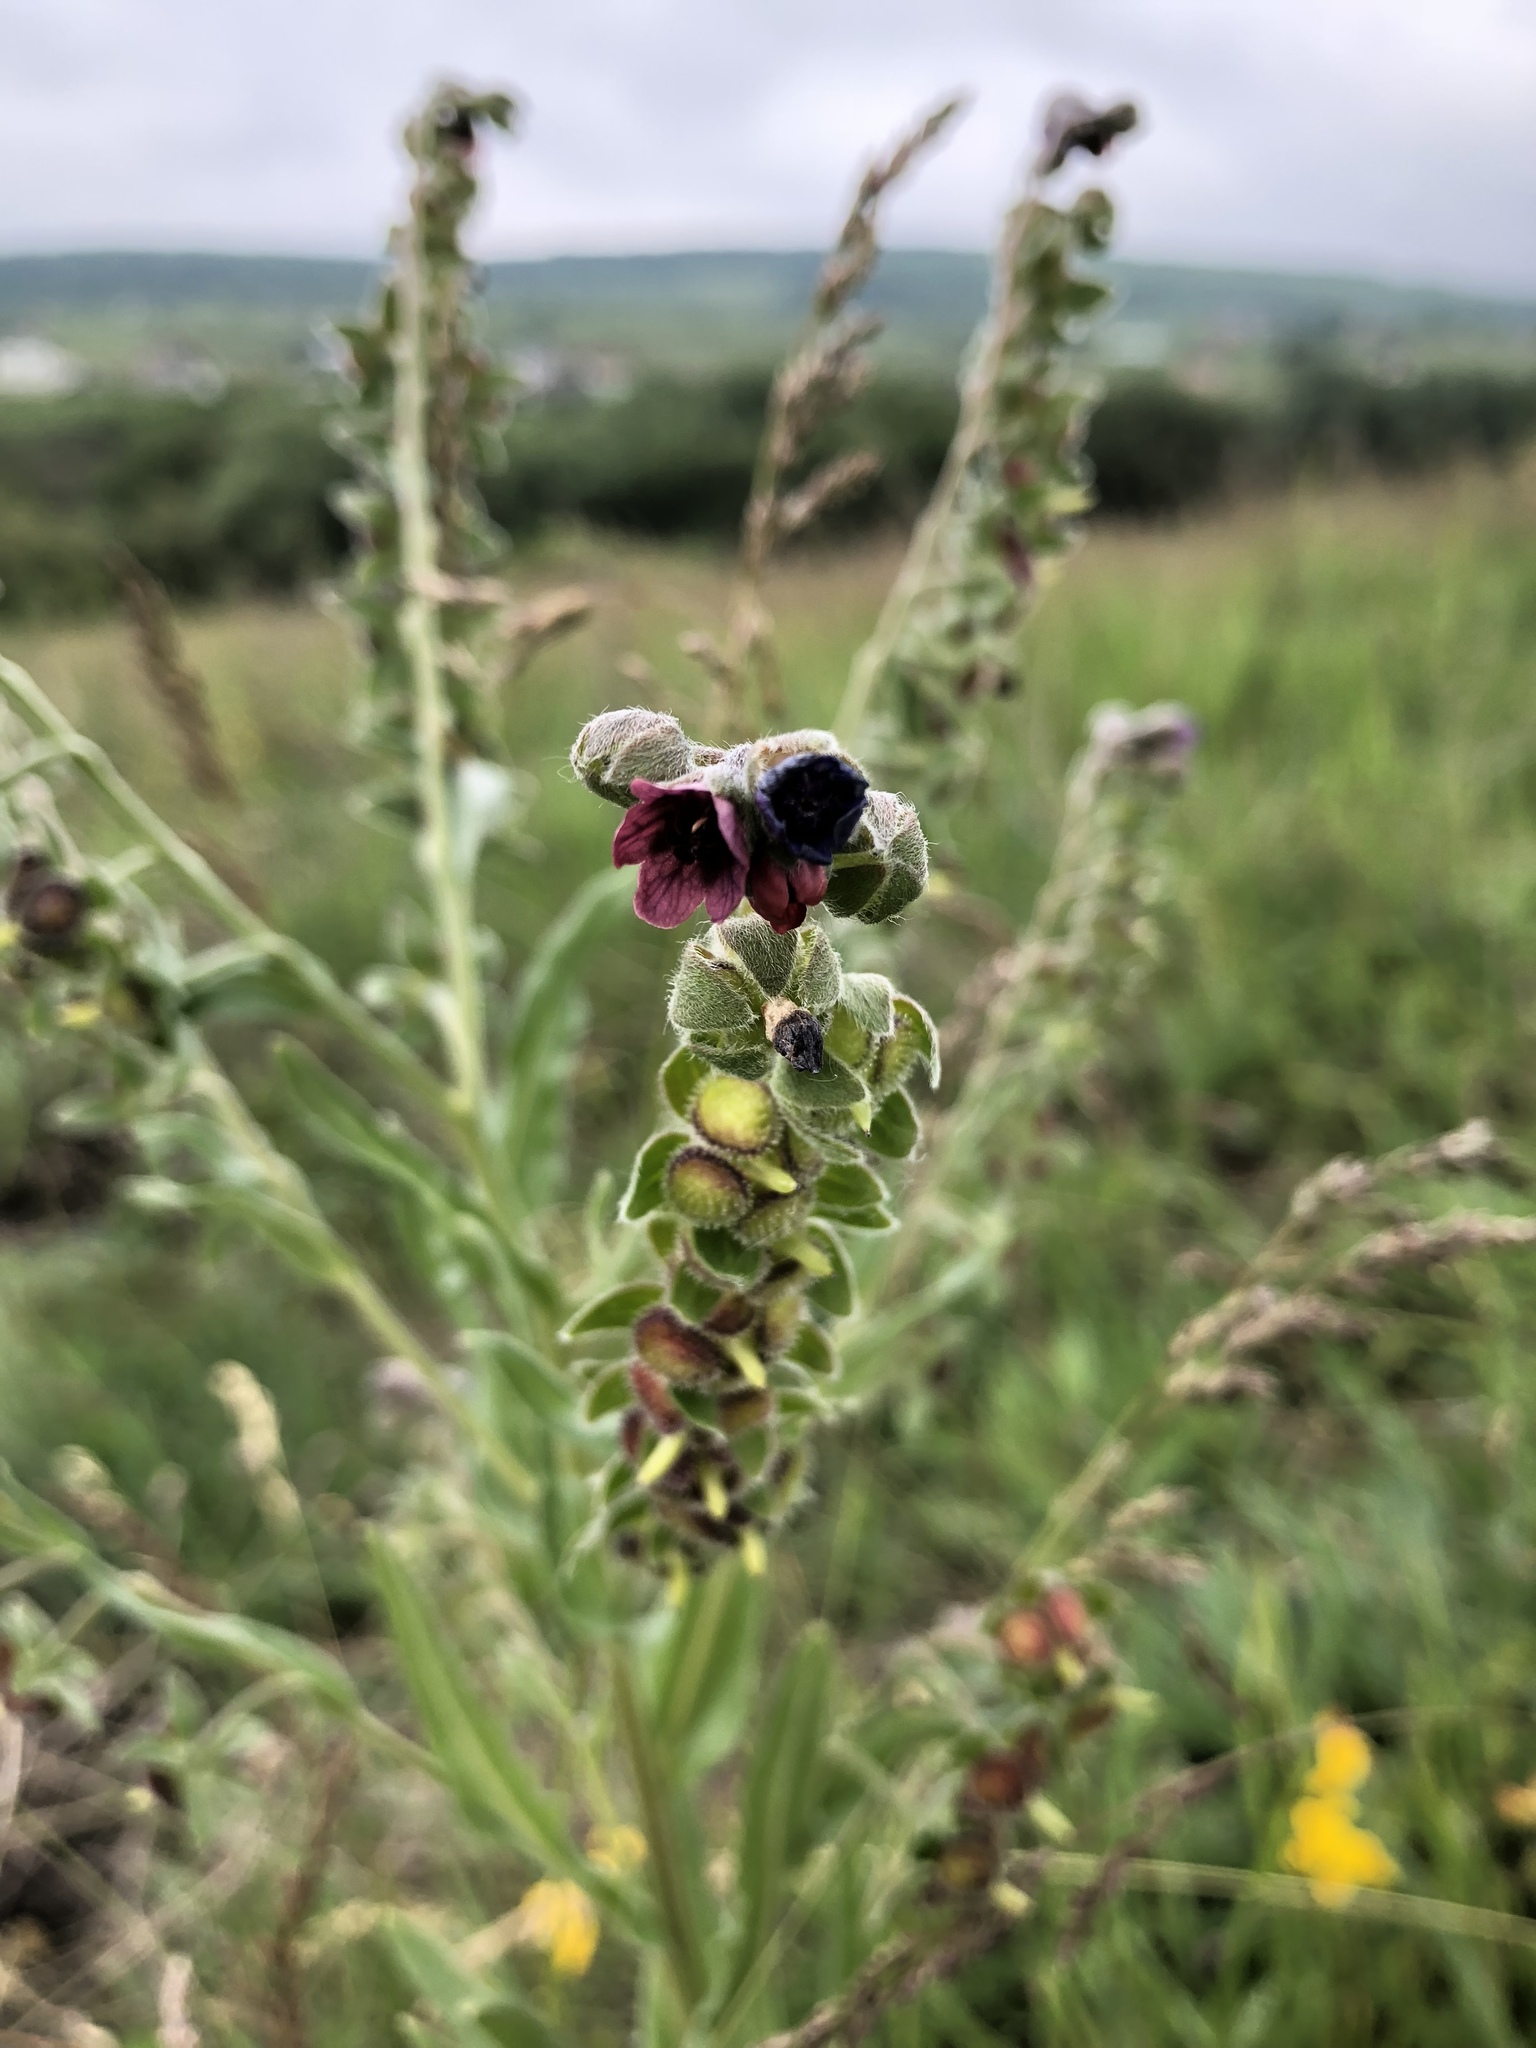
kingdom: Plantae
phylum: Tracheophyta
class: Magnoliopsida
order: Boraginales
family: Boraginaceae
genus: Cynoglossum
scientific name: Cynoglossum officinale
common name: Hound's-tongue
